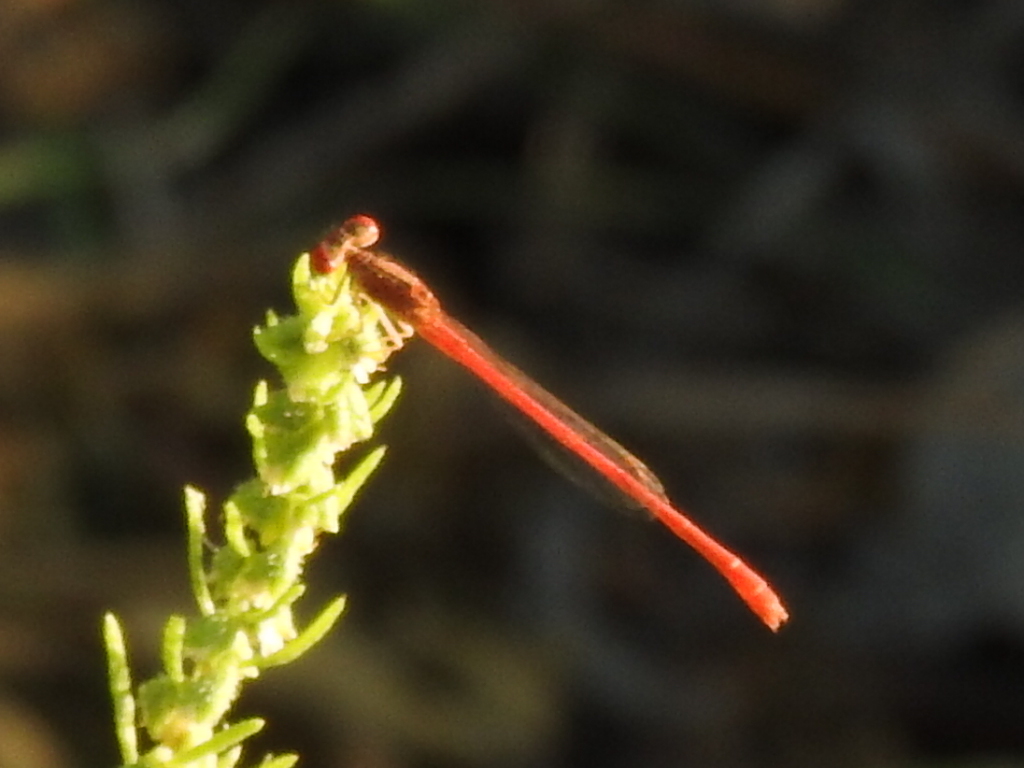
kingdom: Animalia
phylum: Arthropoda
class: Insecta
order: Odonata
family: Coenagrionidae
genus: Telebasis
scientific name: Telebasis salva
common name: Desert firetail
